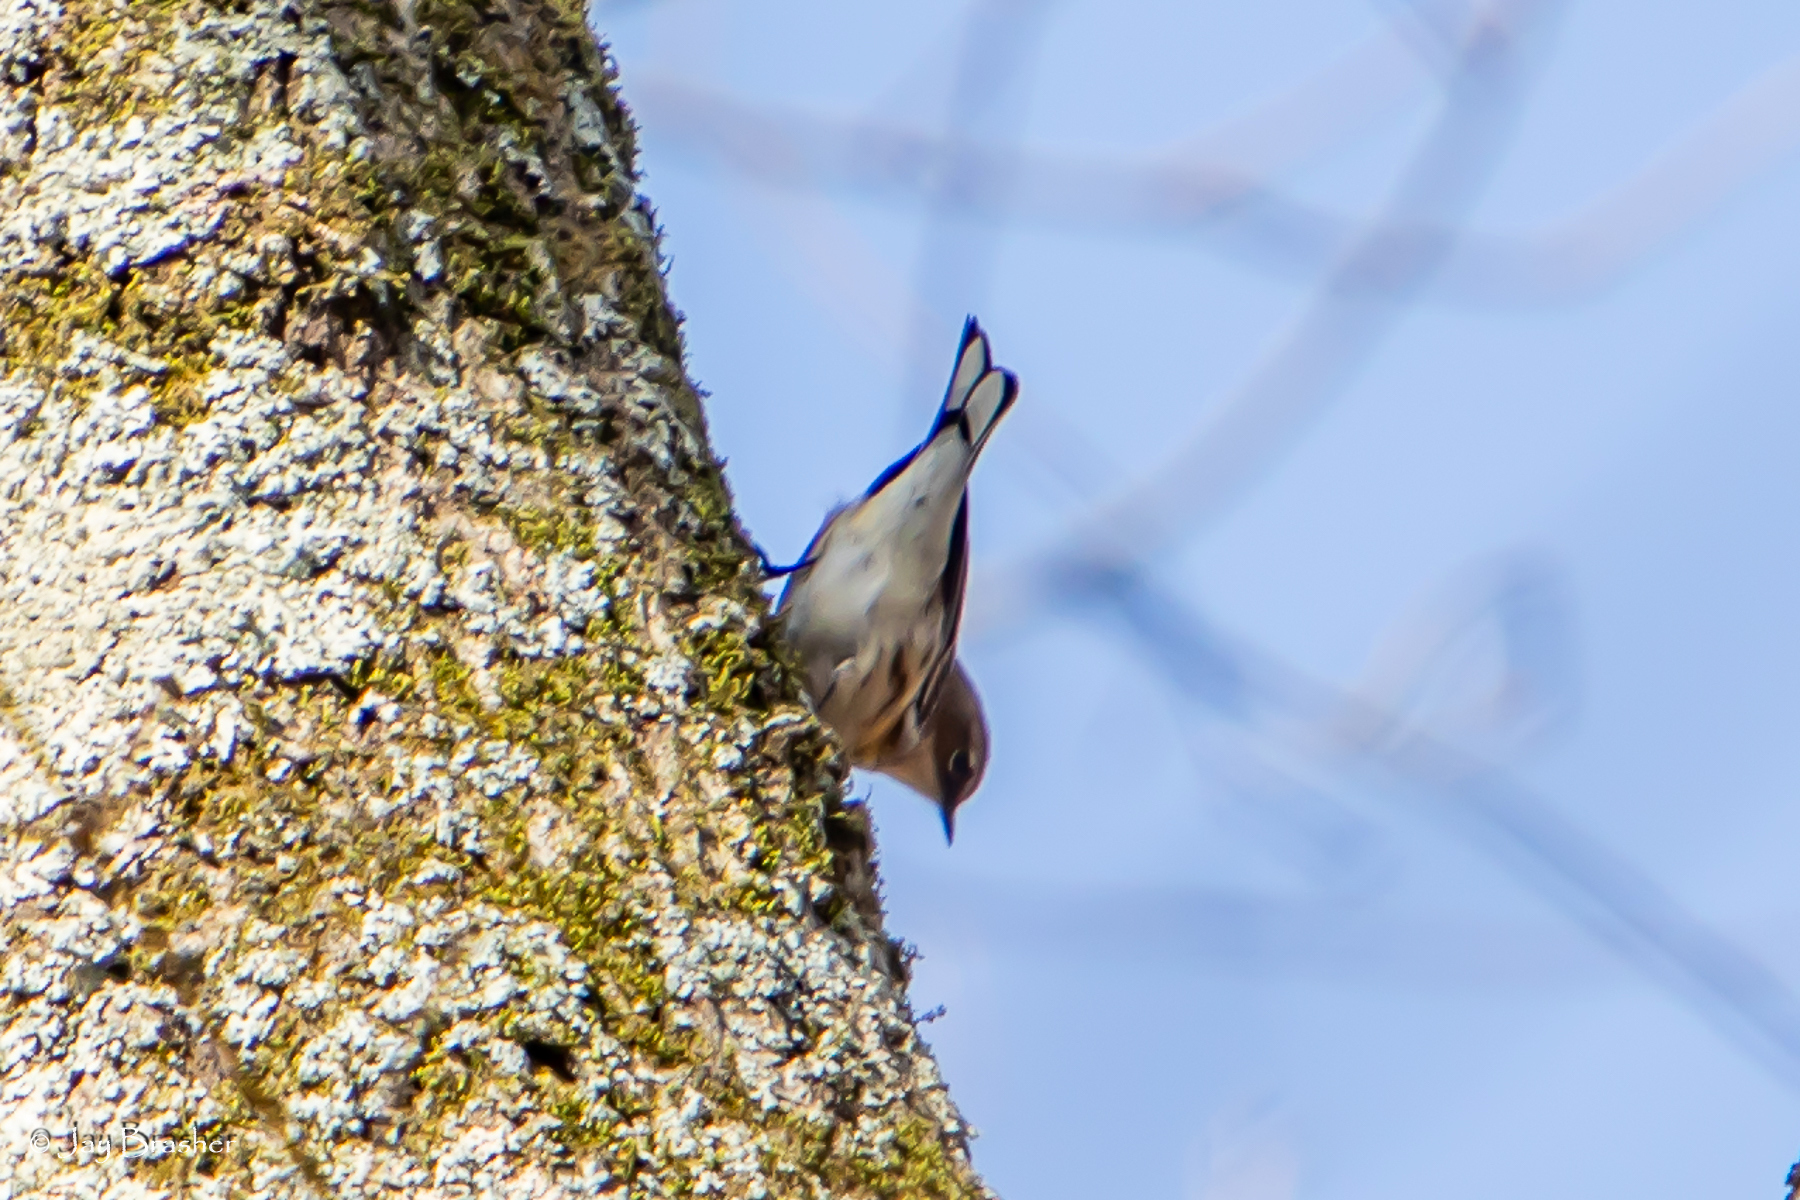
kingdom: Animalia
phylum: Chordata
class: Aves
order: Passeriformes
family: Parulidae
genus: Setophaga
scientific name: Setophaga coronata
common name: Myrtle warbler
